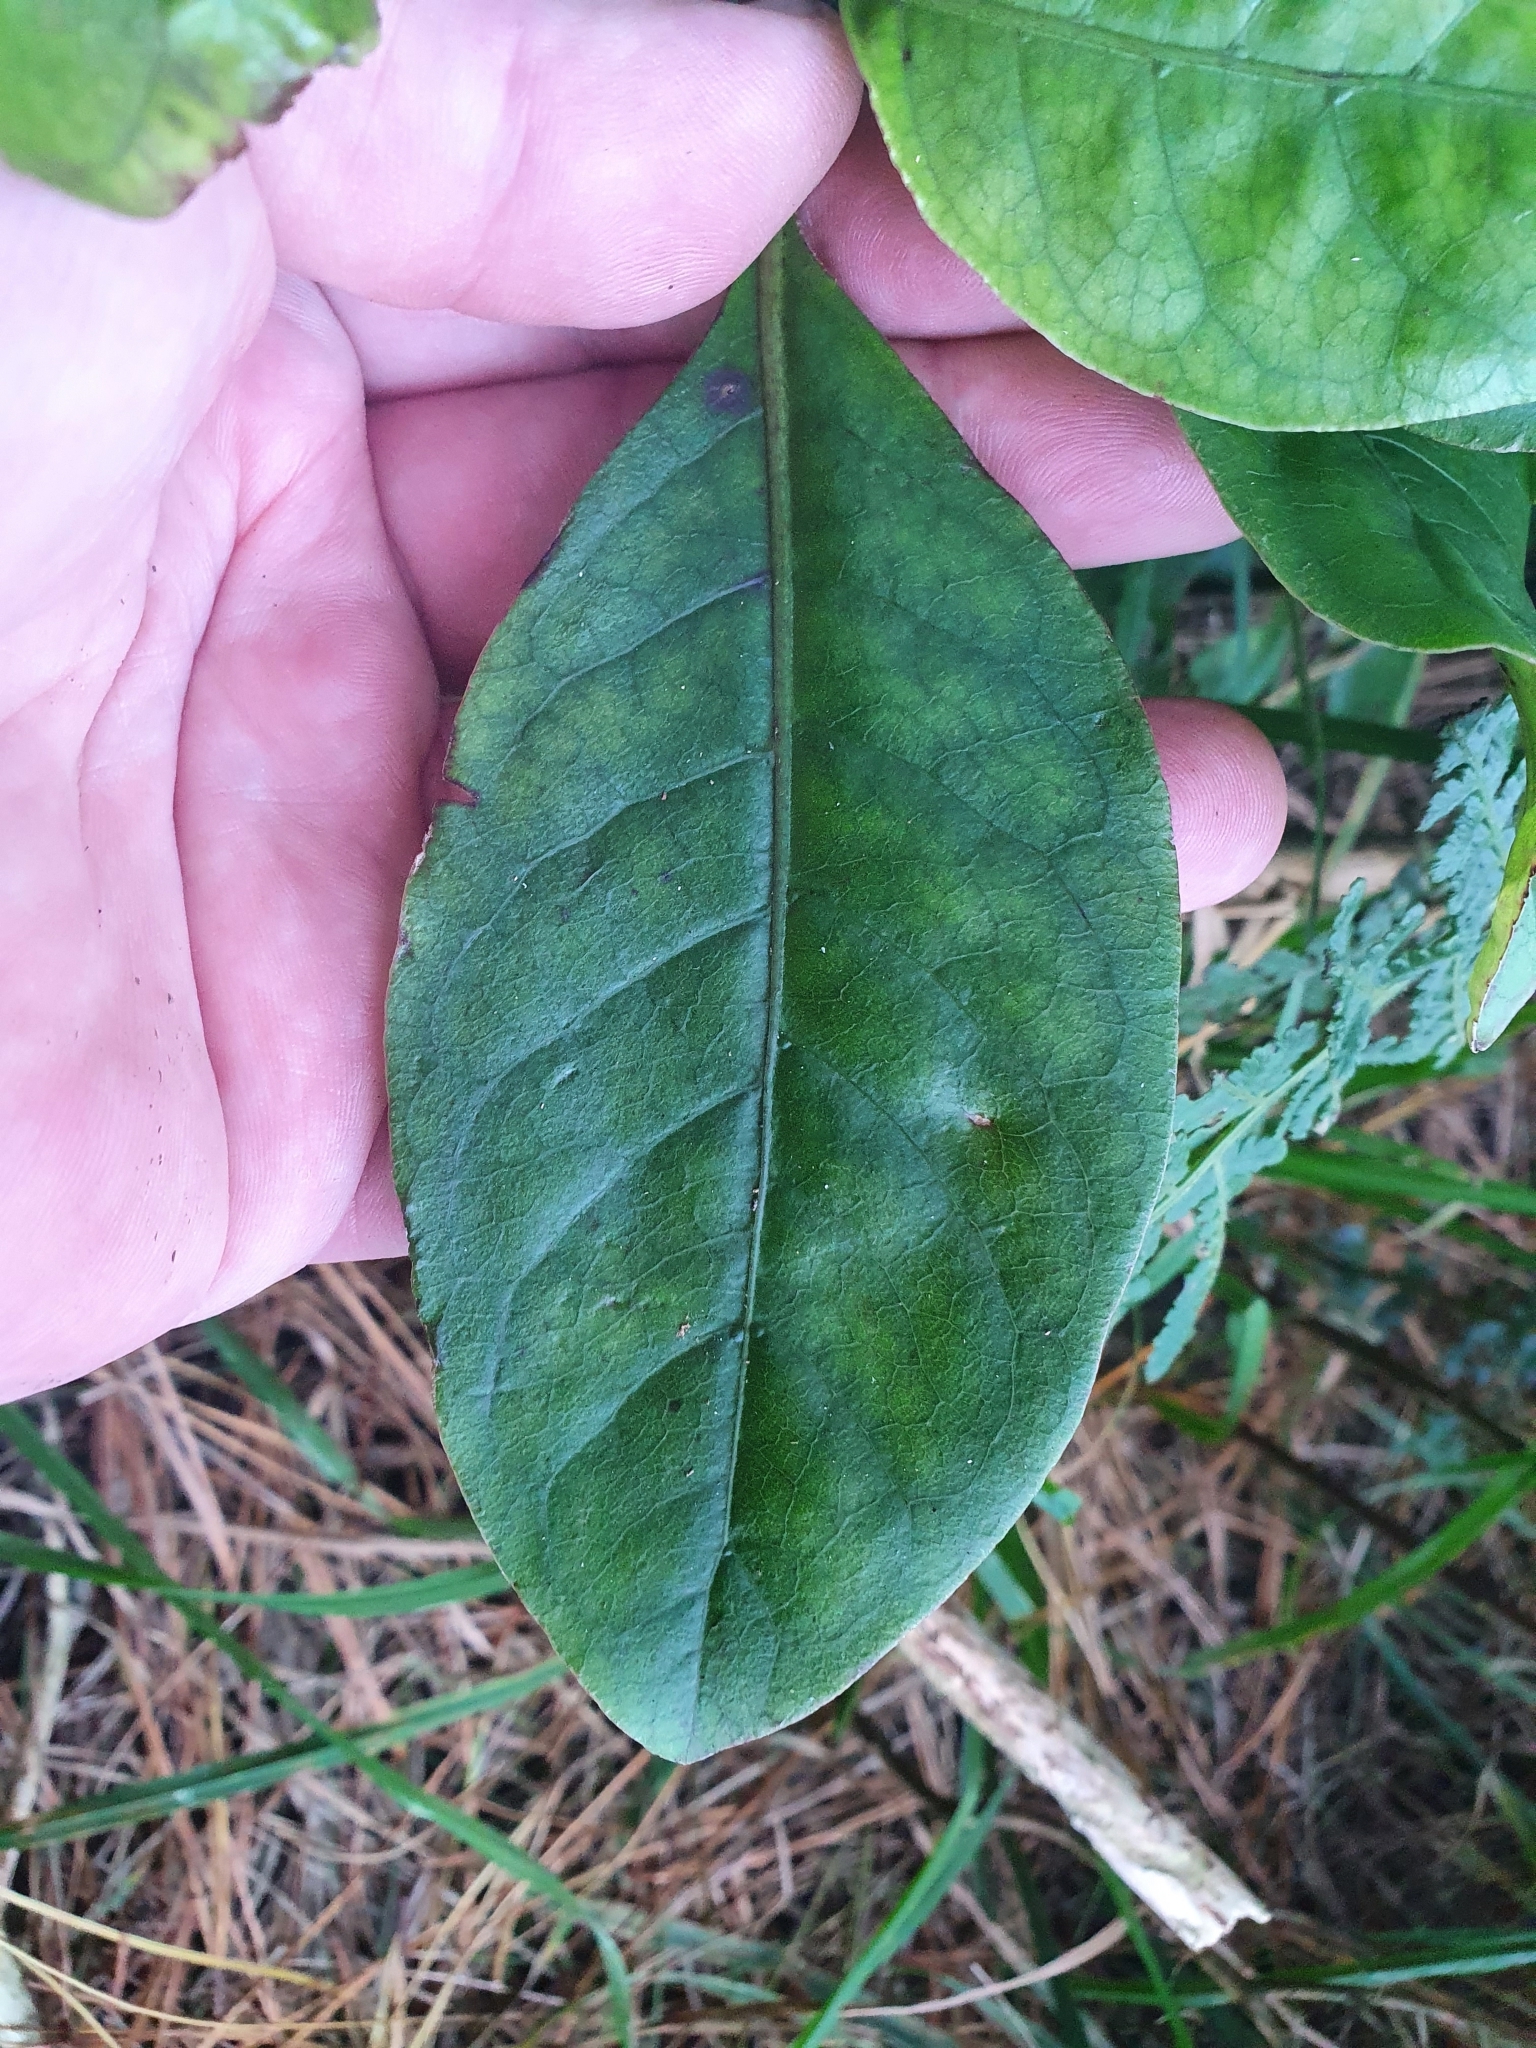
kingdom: Plantae
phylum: Tracheophyta
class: Magnoliopsida
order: Gentianales
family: Rubiaceae
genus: Coprosma
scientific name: Coprosma autumnalis
